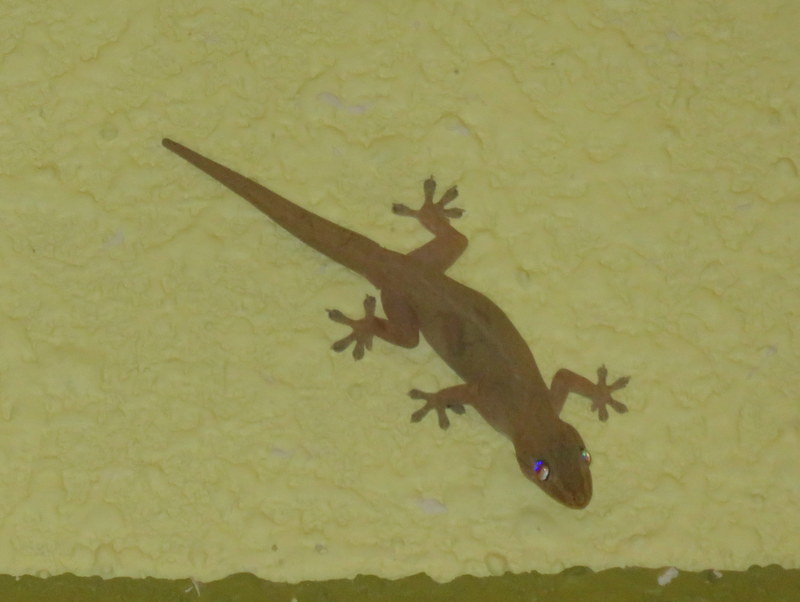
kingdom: Animalia
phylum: Chordata
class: Squamata
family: Gekkonidae
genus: Hemidactylus
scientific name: Hemidactylus frenatus
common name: Common house gecko
